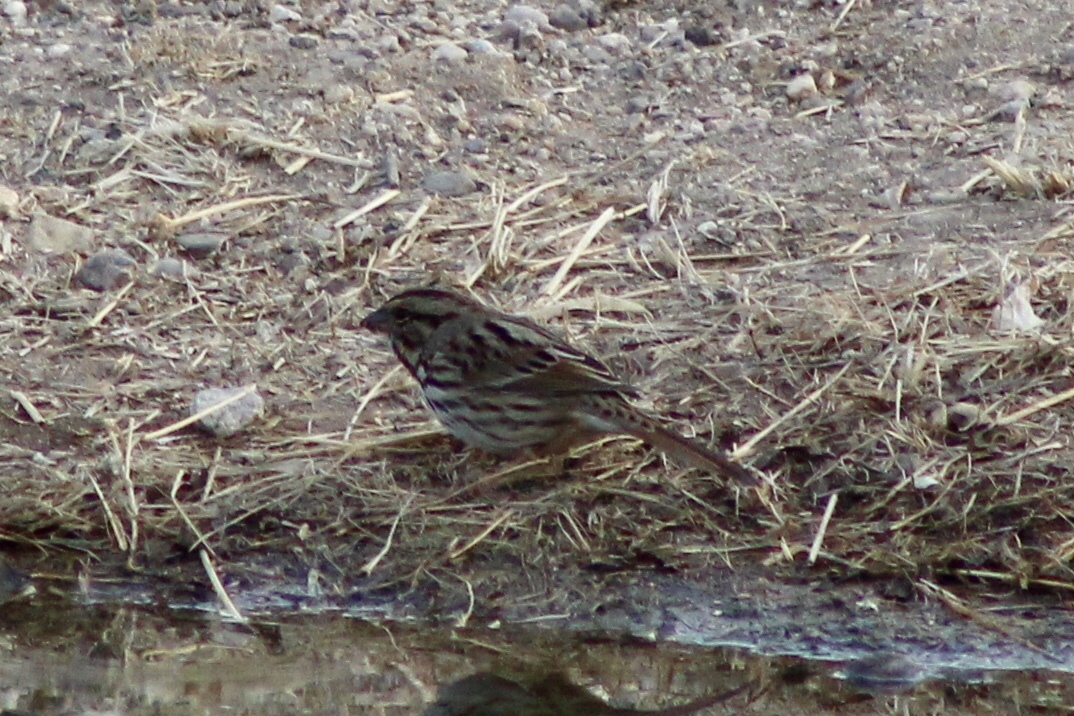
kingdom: Animalia
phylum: Chordata
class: Aves
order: Passeriformes
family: Passerellidae
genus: Melospiza
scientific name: Melospiza melodia
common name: Song sparrow
